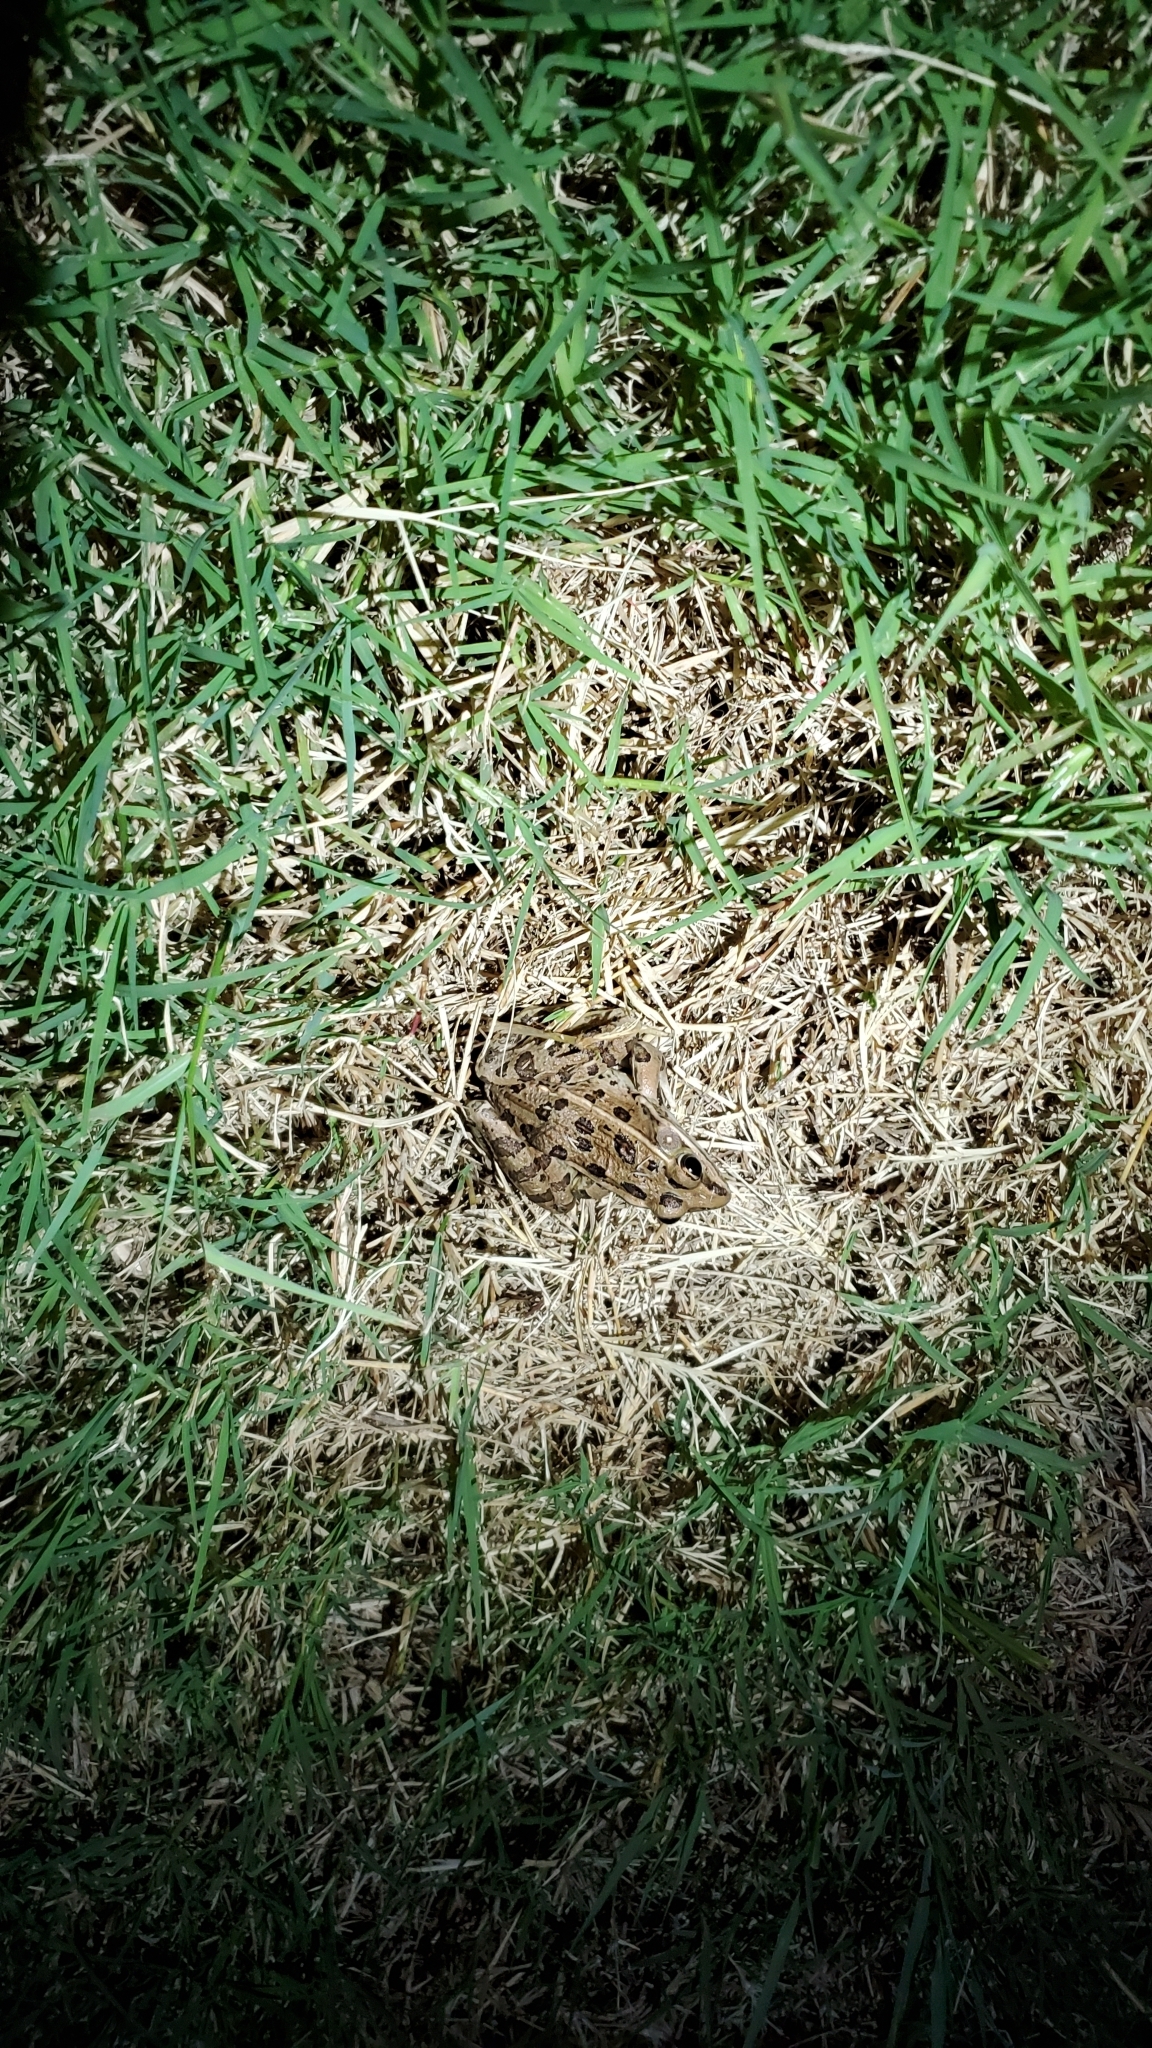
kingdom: Animalia
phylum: Chordata
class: Amphibia
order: Anura
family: Ranidae
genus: Lithobates
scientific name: Lithobates blairi
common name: Plains leopard frog
